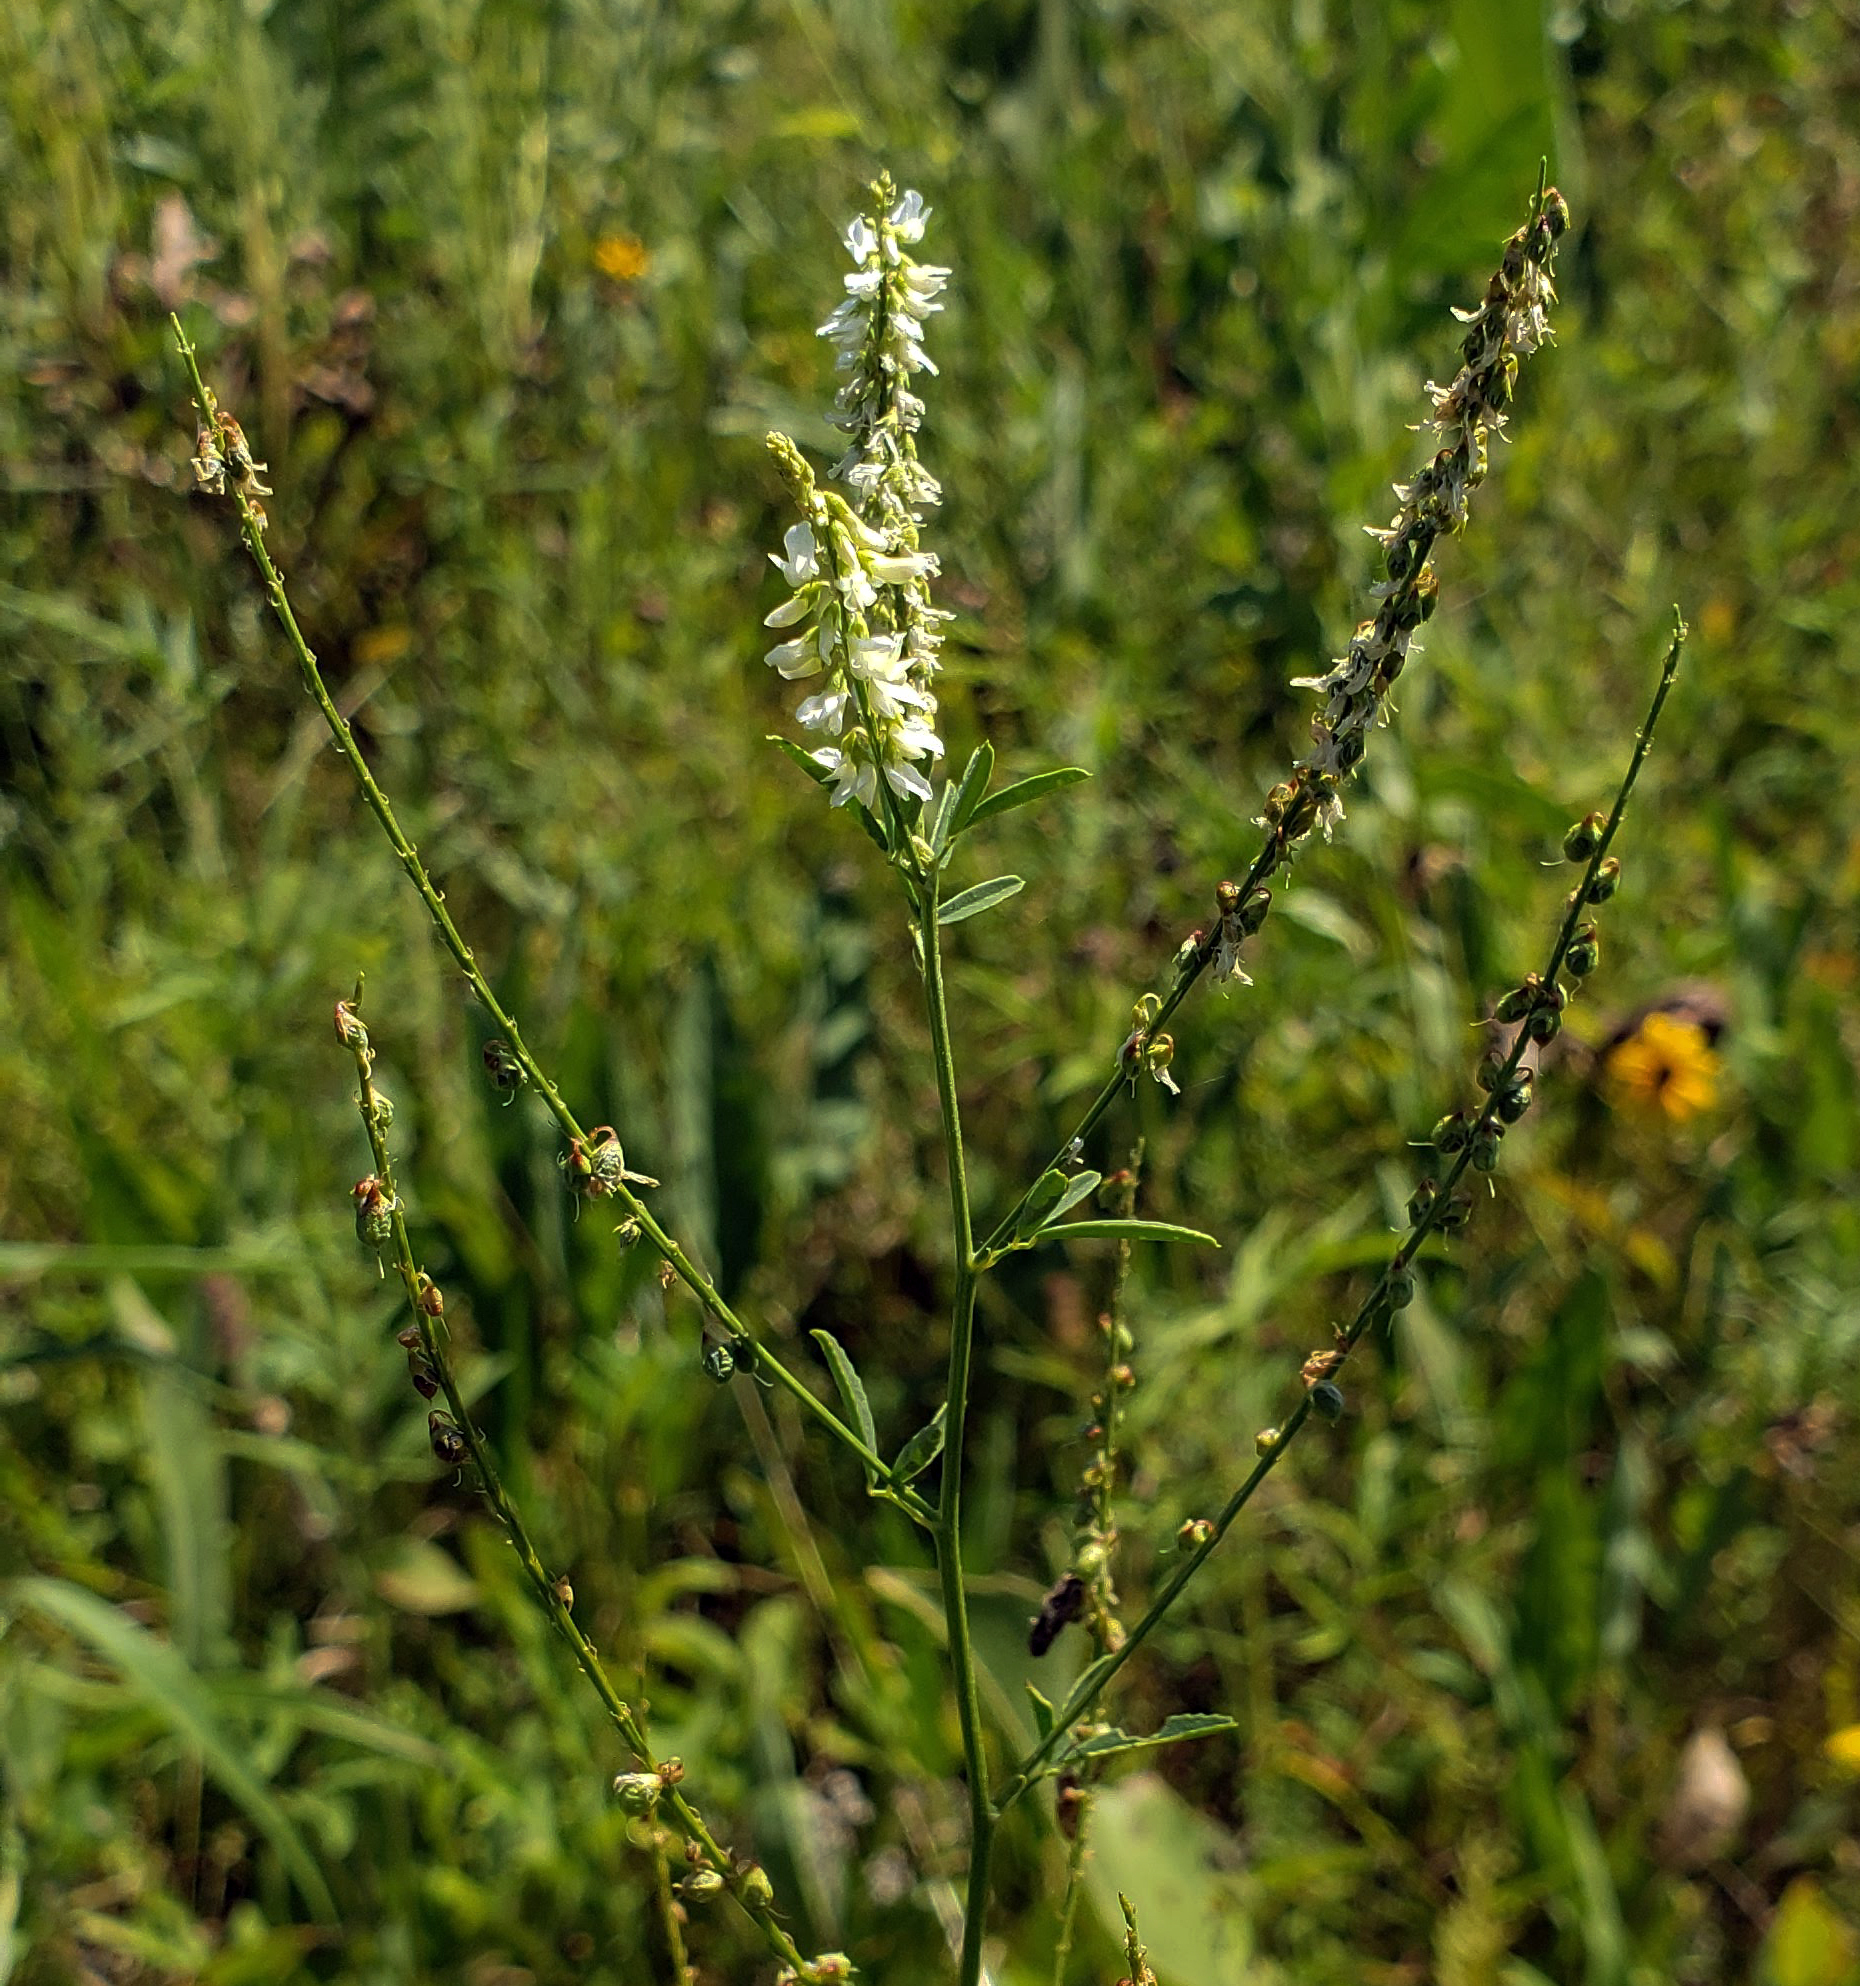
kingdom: Plantae
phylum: Tracheophyta
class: Magnoliopsida
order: Fabales
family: Fabaceae
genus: Melilotus
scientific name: Melilotus albus
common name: White melilot
